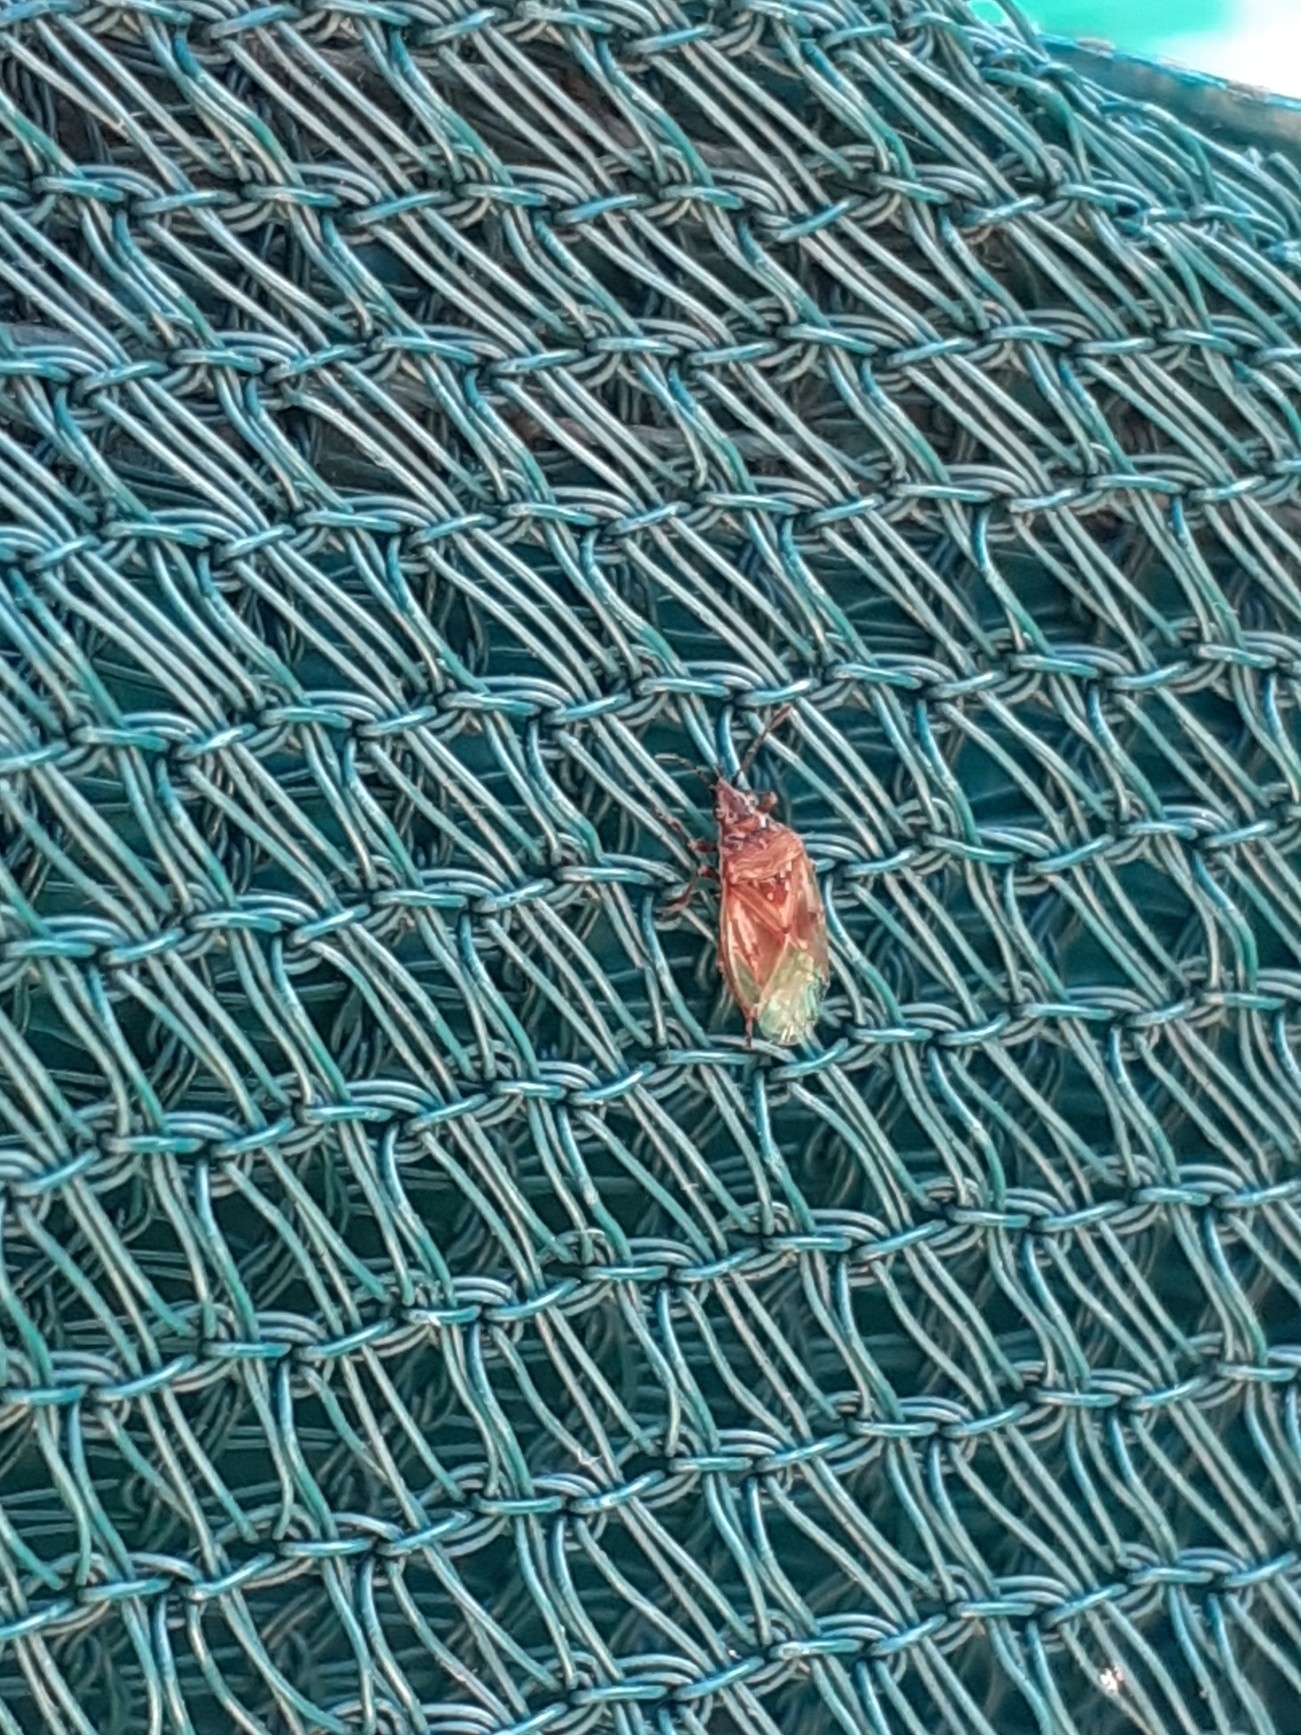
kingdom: Animalia
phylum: Arthropoda
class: Insecta
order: Hemiptera
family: Lygaeidae
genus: Kleidocerys
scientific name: Kleidocerys resedae
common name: Birch catkin bug
